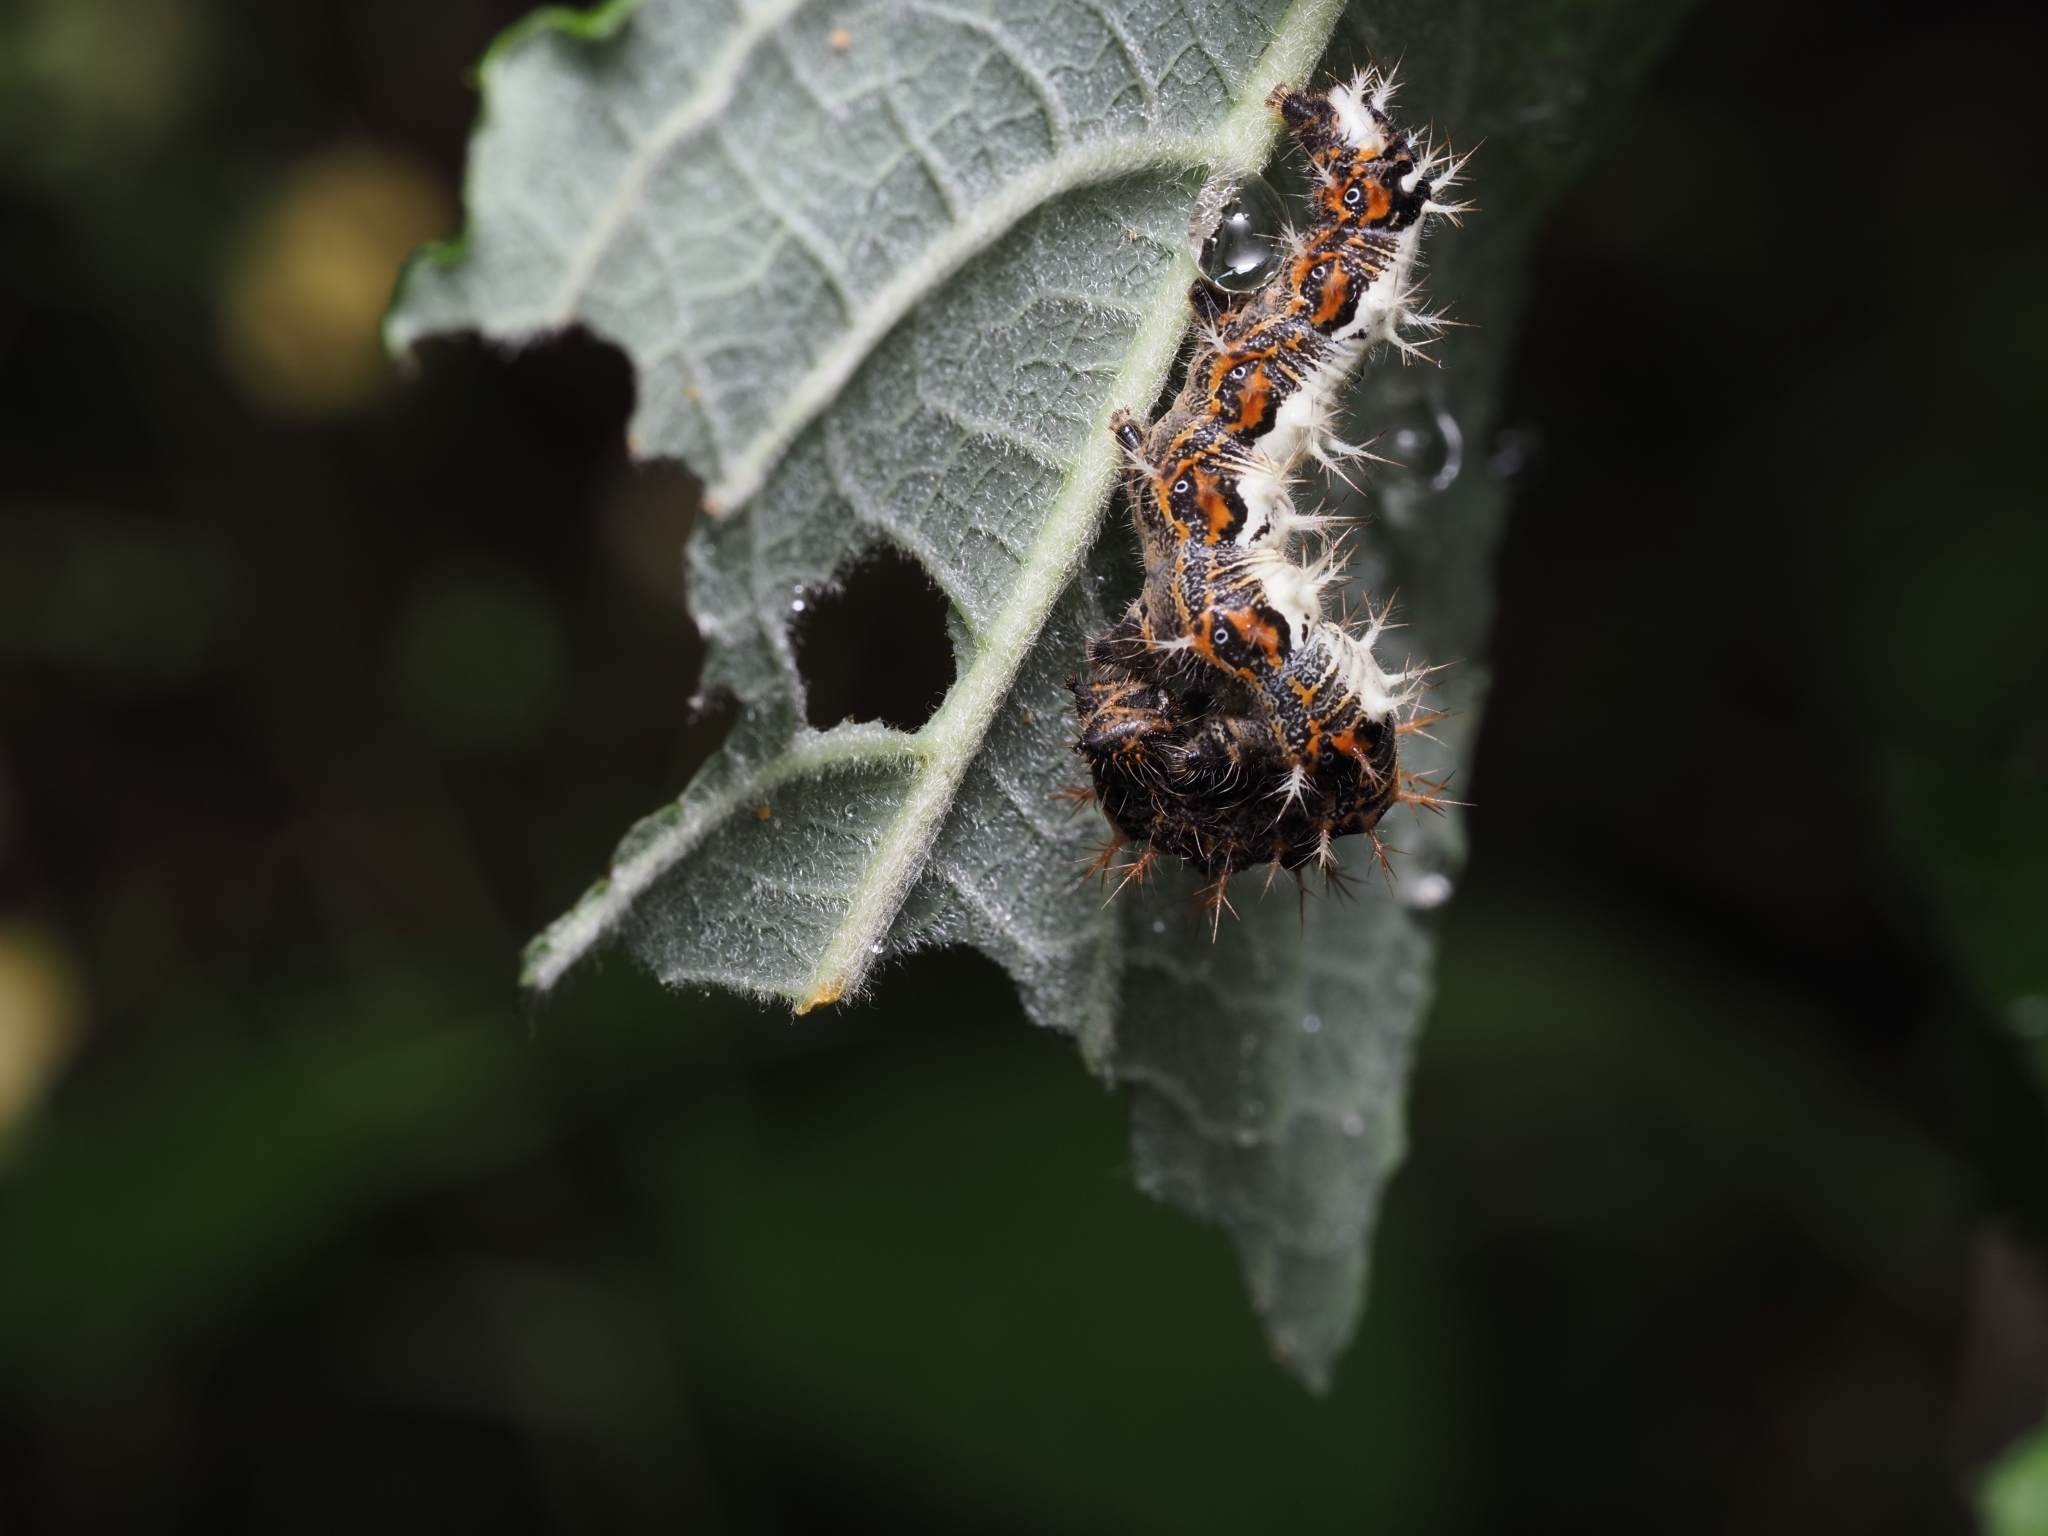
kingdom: Animalia
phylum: Arthropoda
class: Insecta
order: Lepidoptera
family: Nymphalidae
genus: Polygonia
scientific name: Polygonia c-album
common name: Comma
